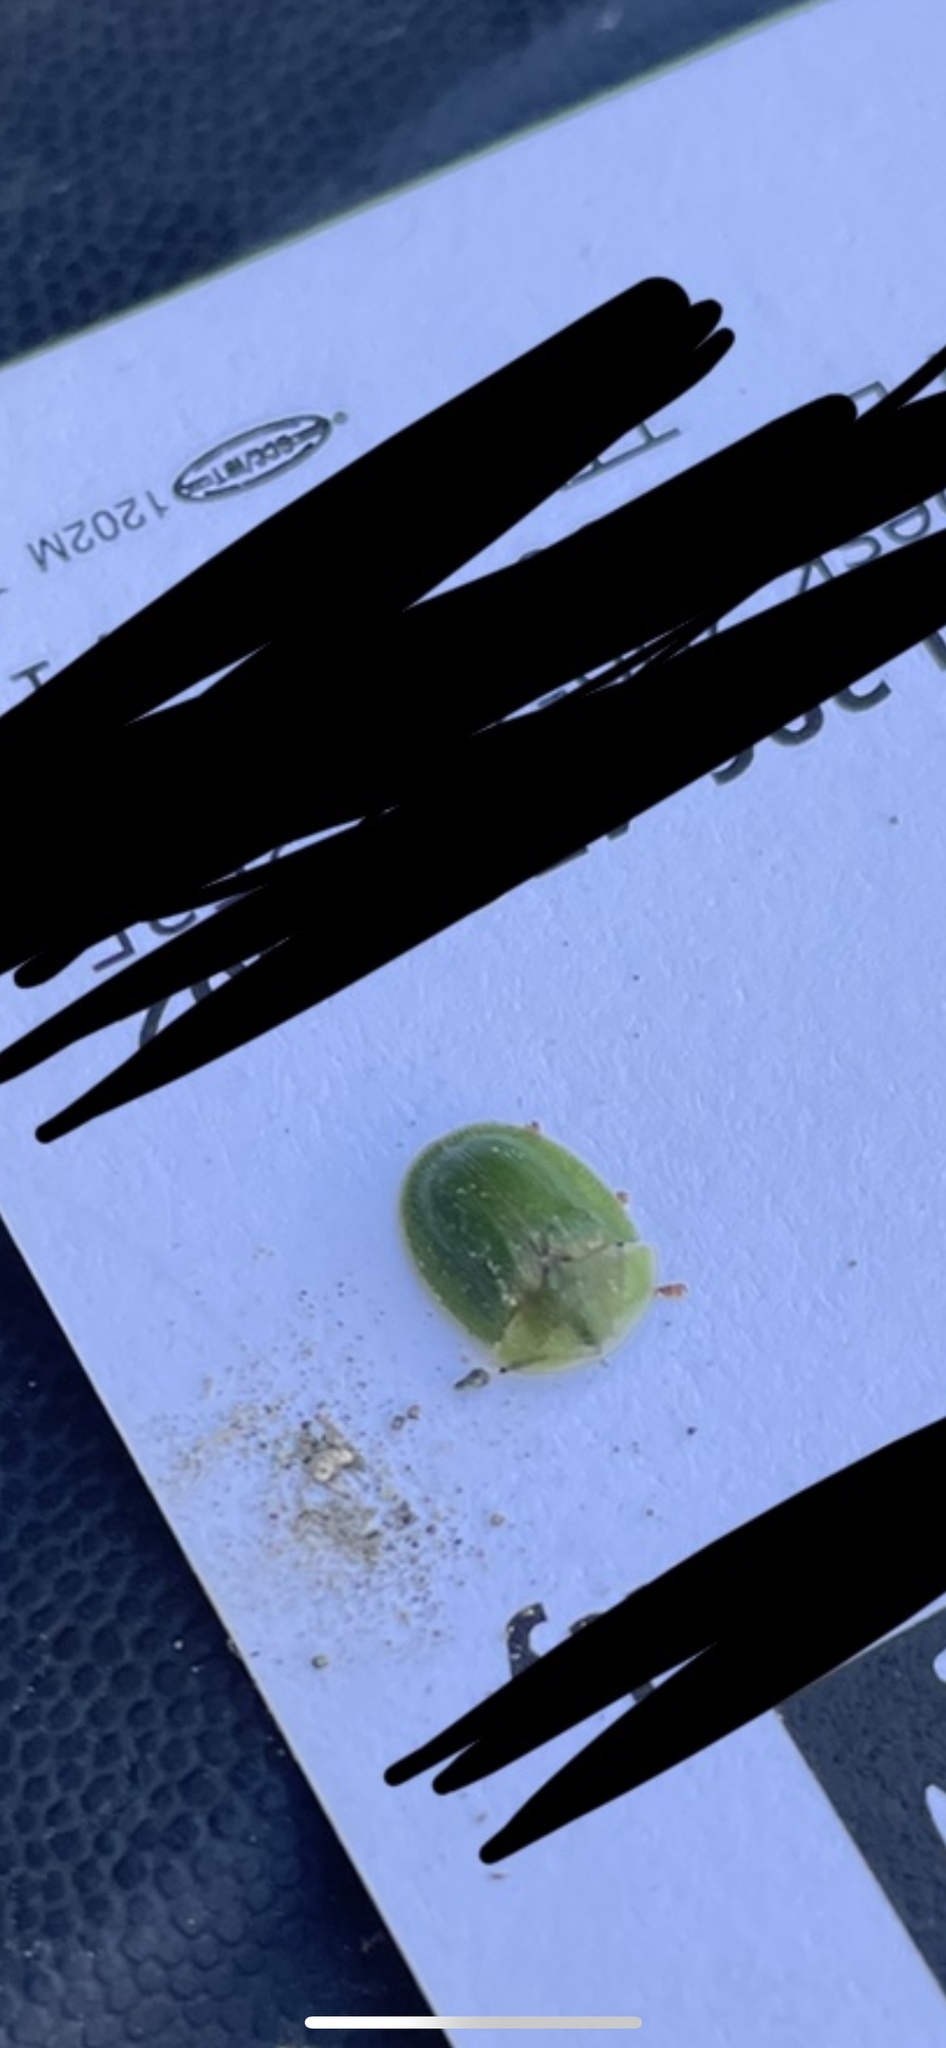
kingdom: Animalia
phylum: Arthropoda
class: Insecta
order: Coleoptera
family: Chrysomelidae
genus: Cassida
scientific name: Cassida rubiginosa
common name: Thistle tortoise beetle
